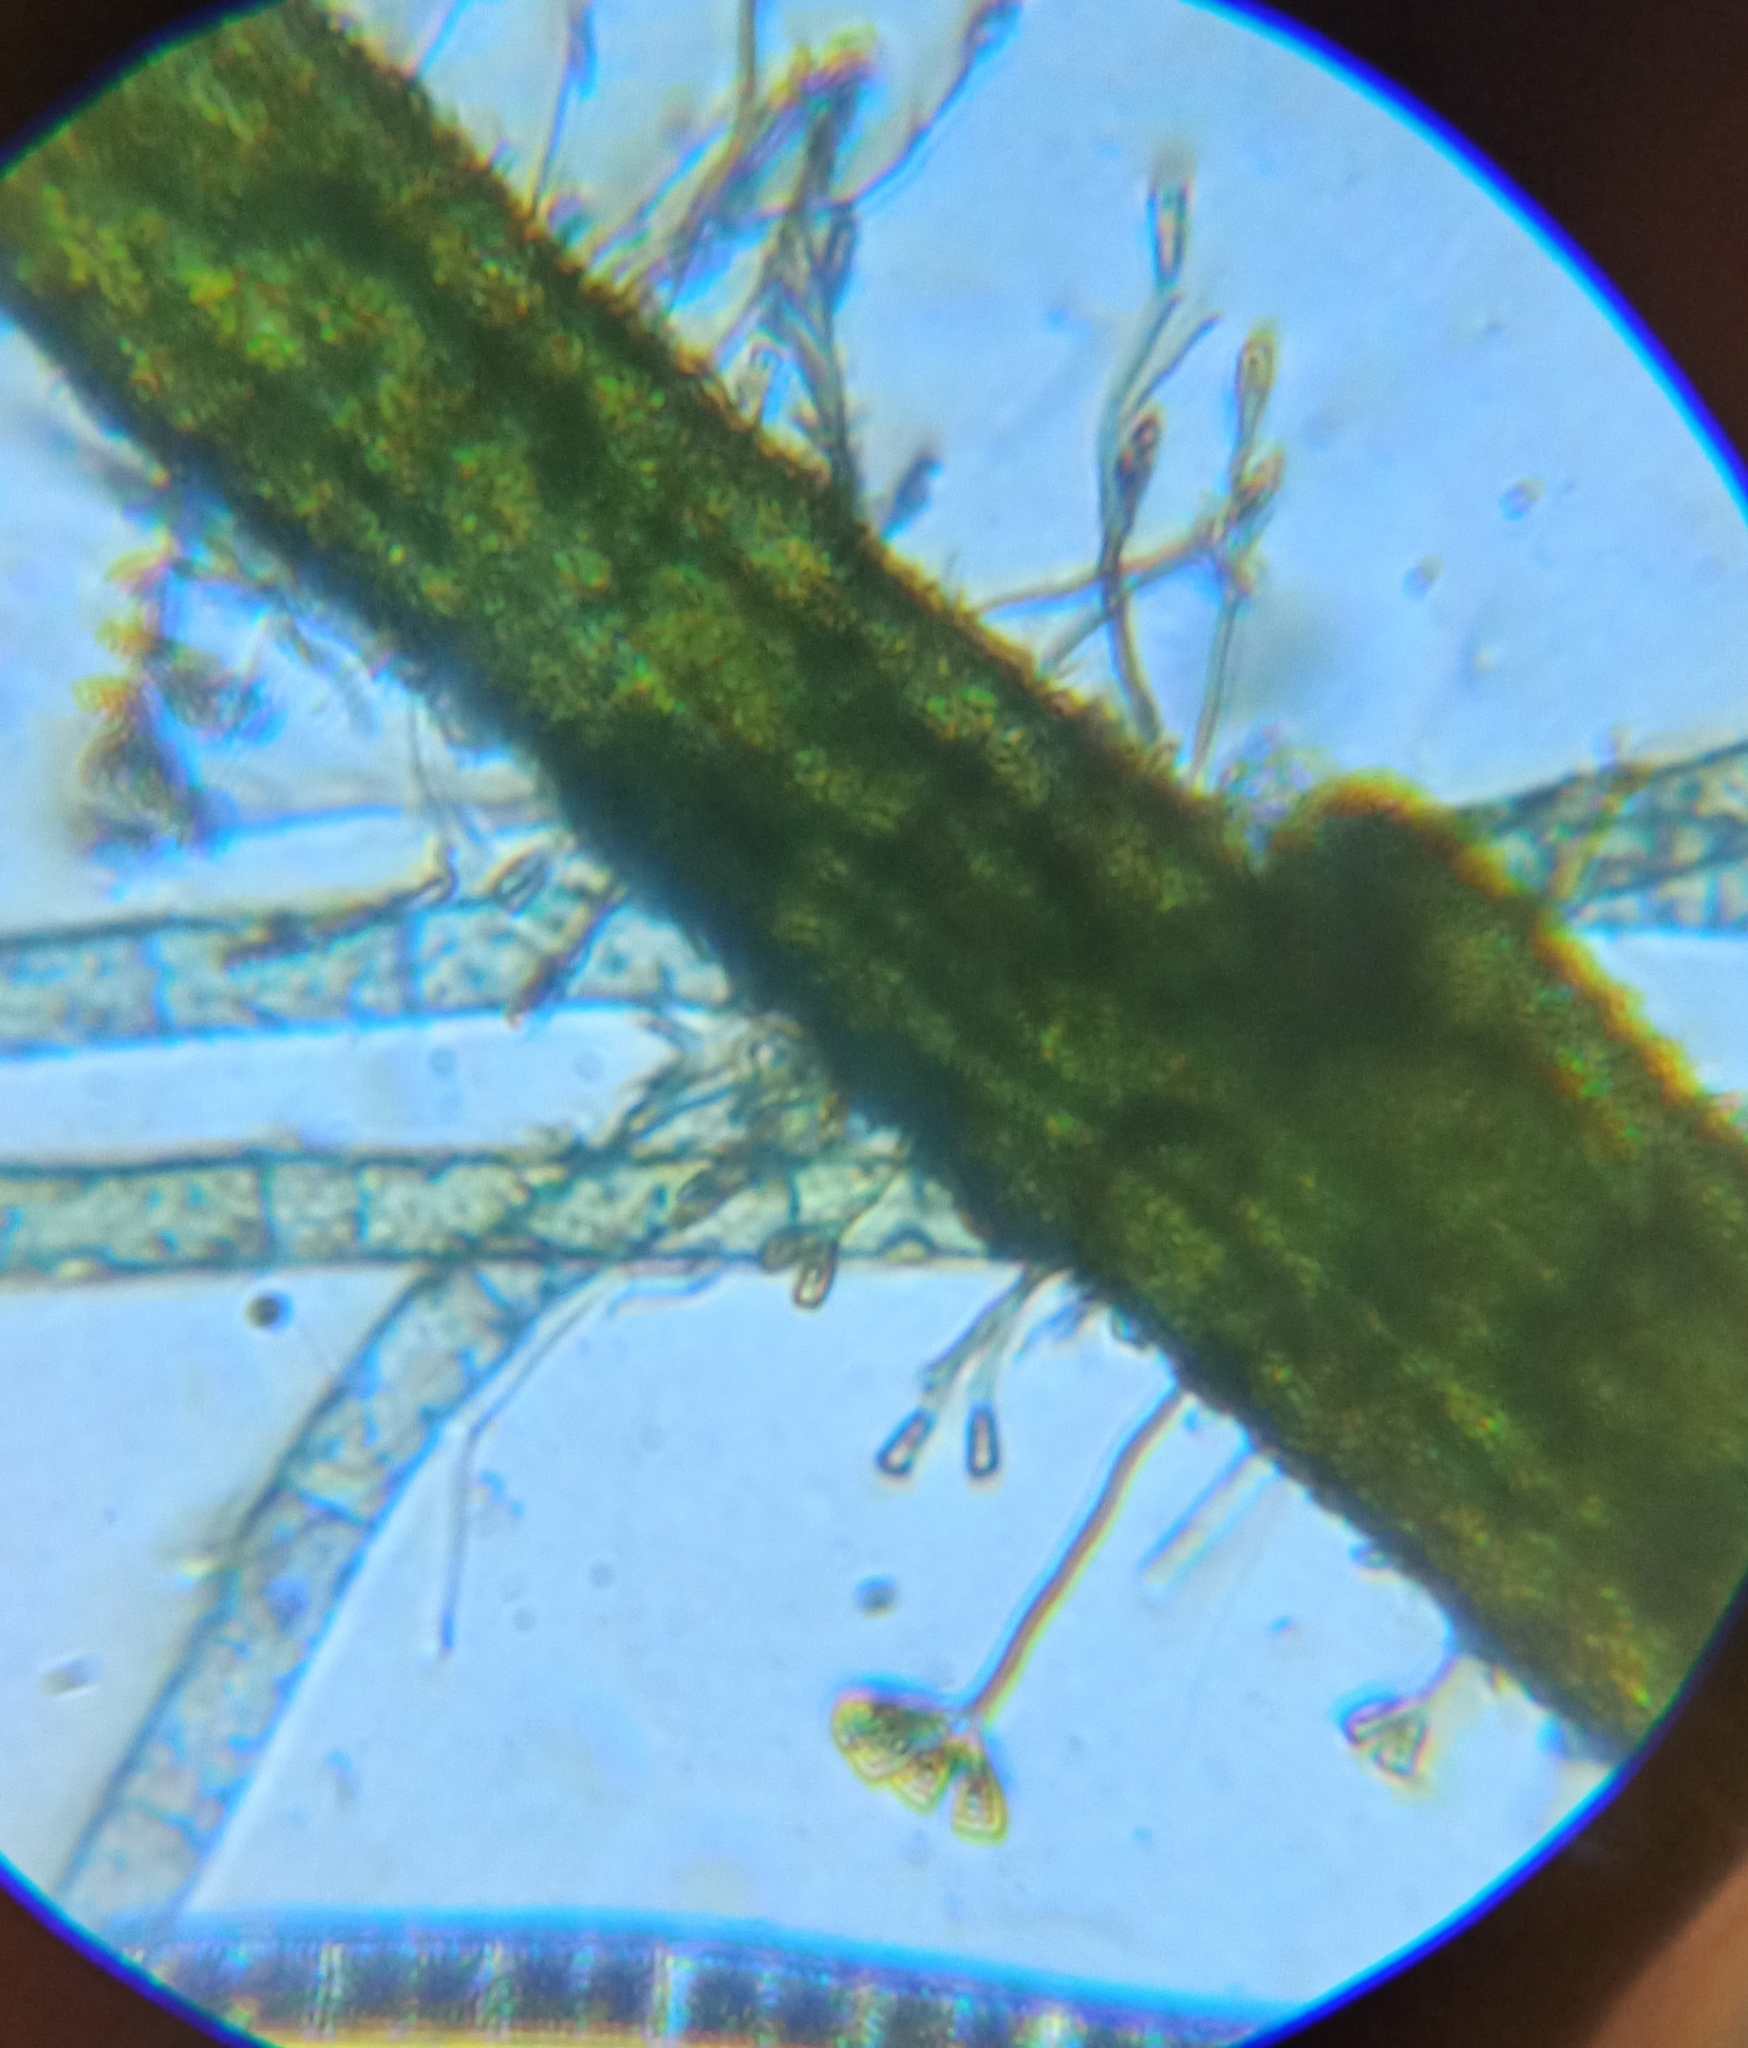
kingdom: Plantae
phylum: Charophyta
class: Zygnematophyceae
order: Zygnematales
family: Zygnemataceae
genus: Zygnema
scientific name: Zygnema
